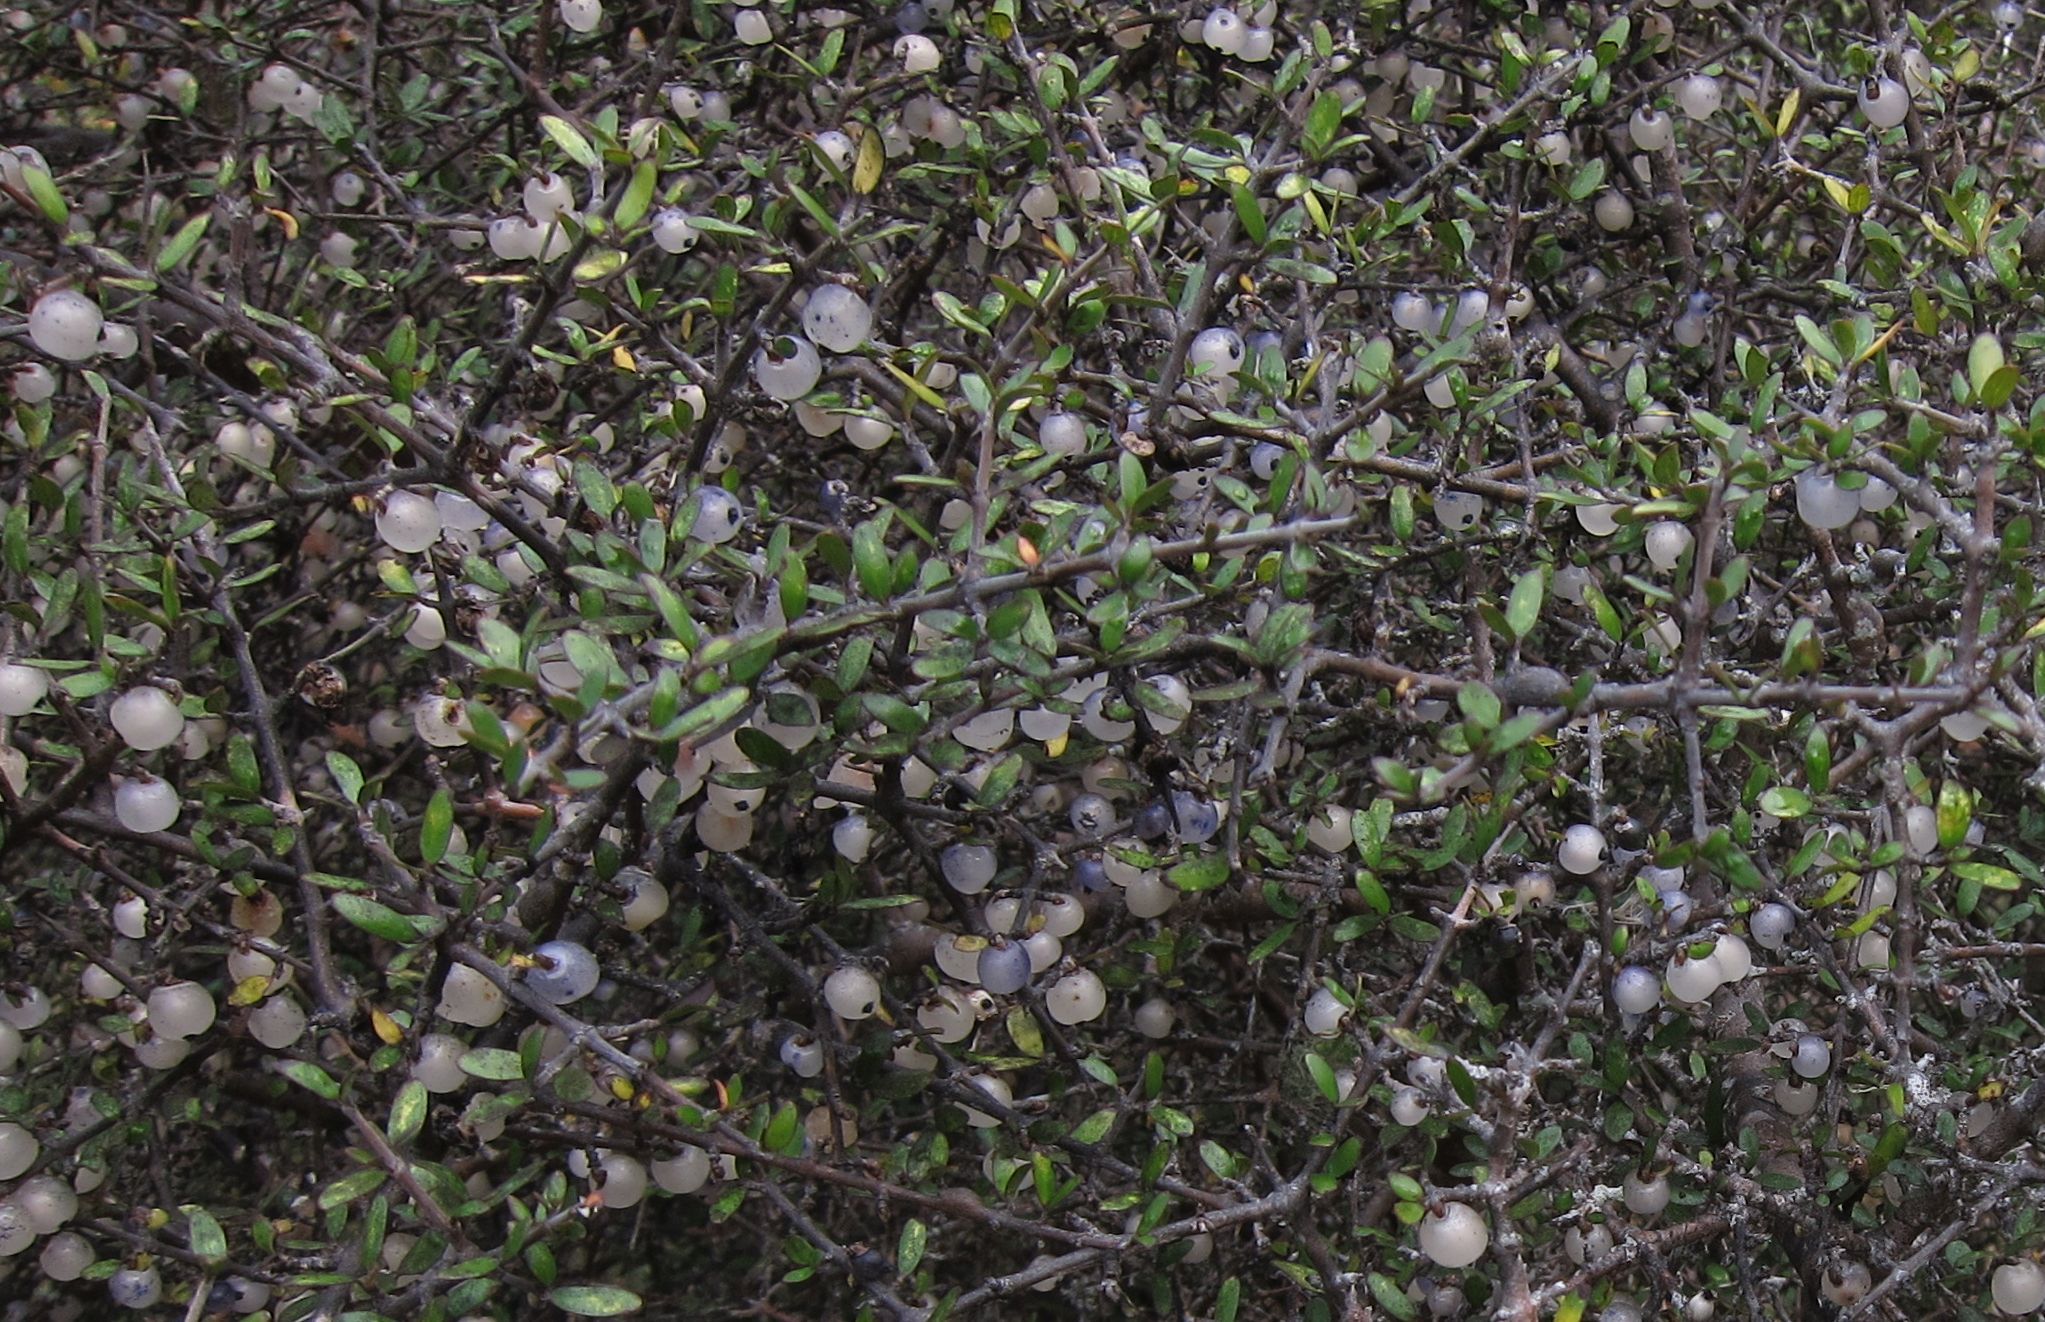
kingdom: Plantae
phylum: Tracheophyta
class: Magnoliopsida
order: Gentianales
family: Rubiaceae
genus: Coprosma
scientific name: Coprosma propinqua
